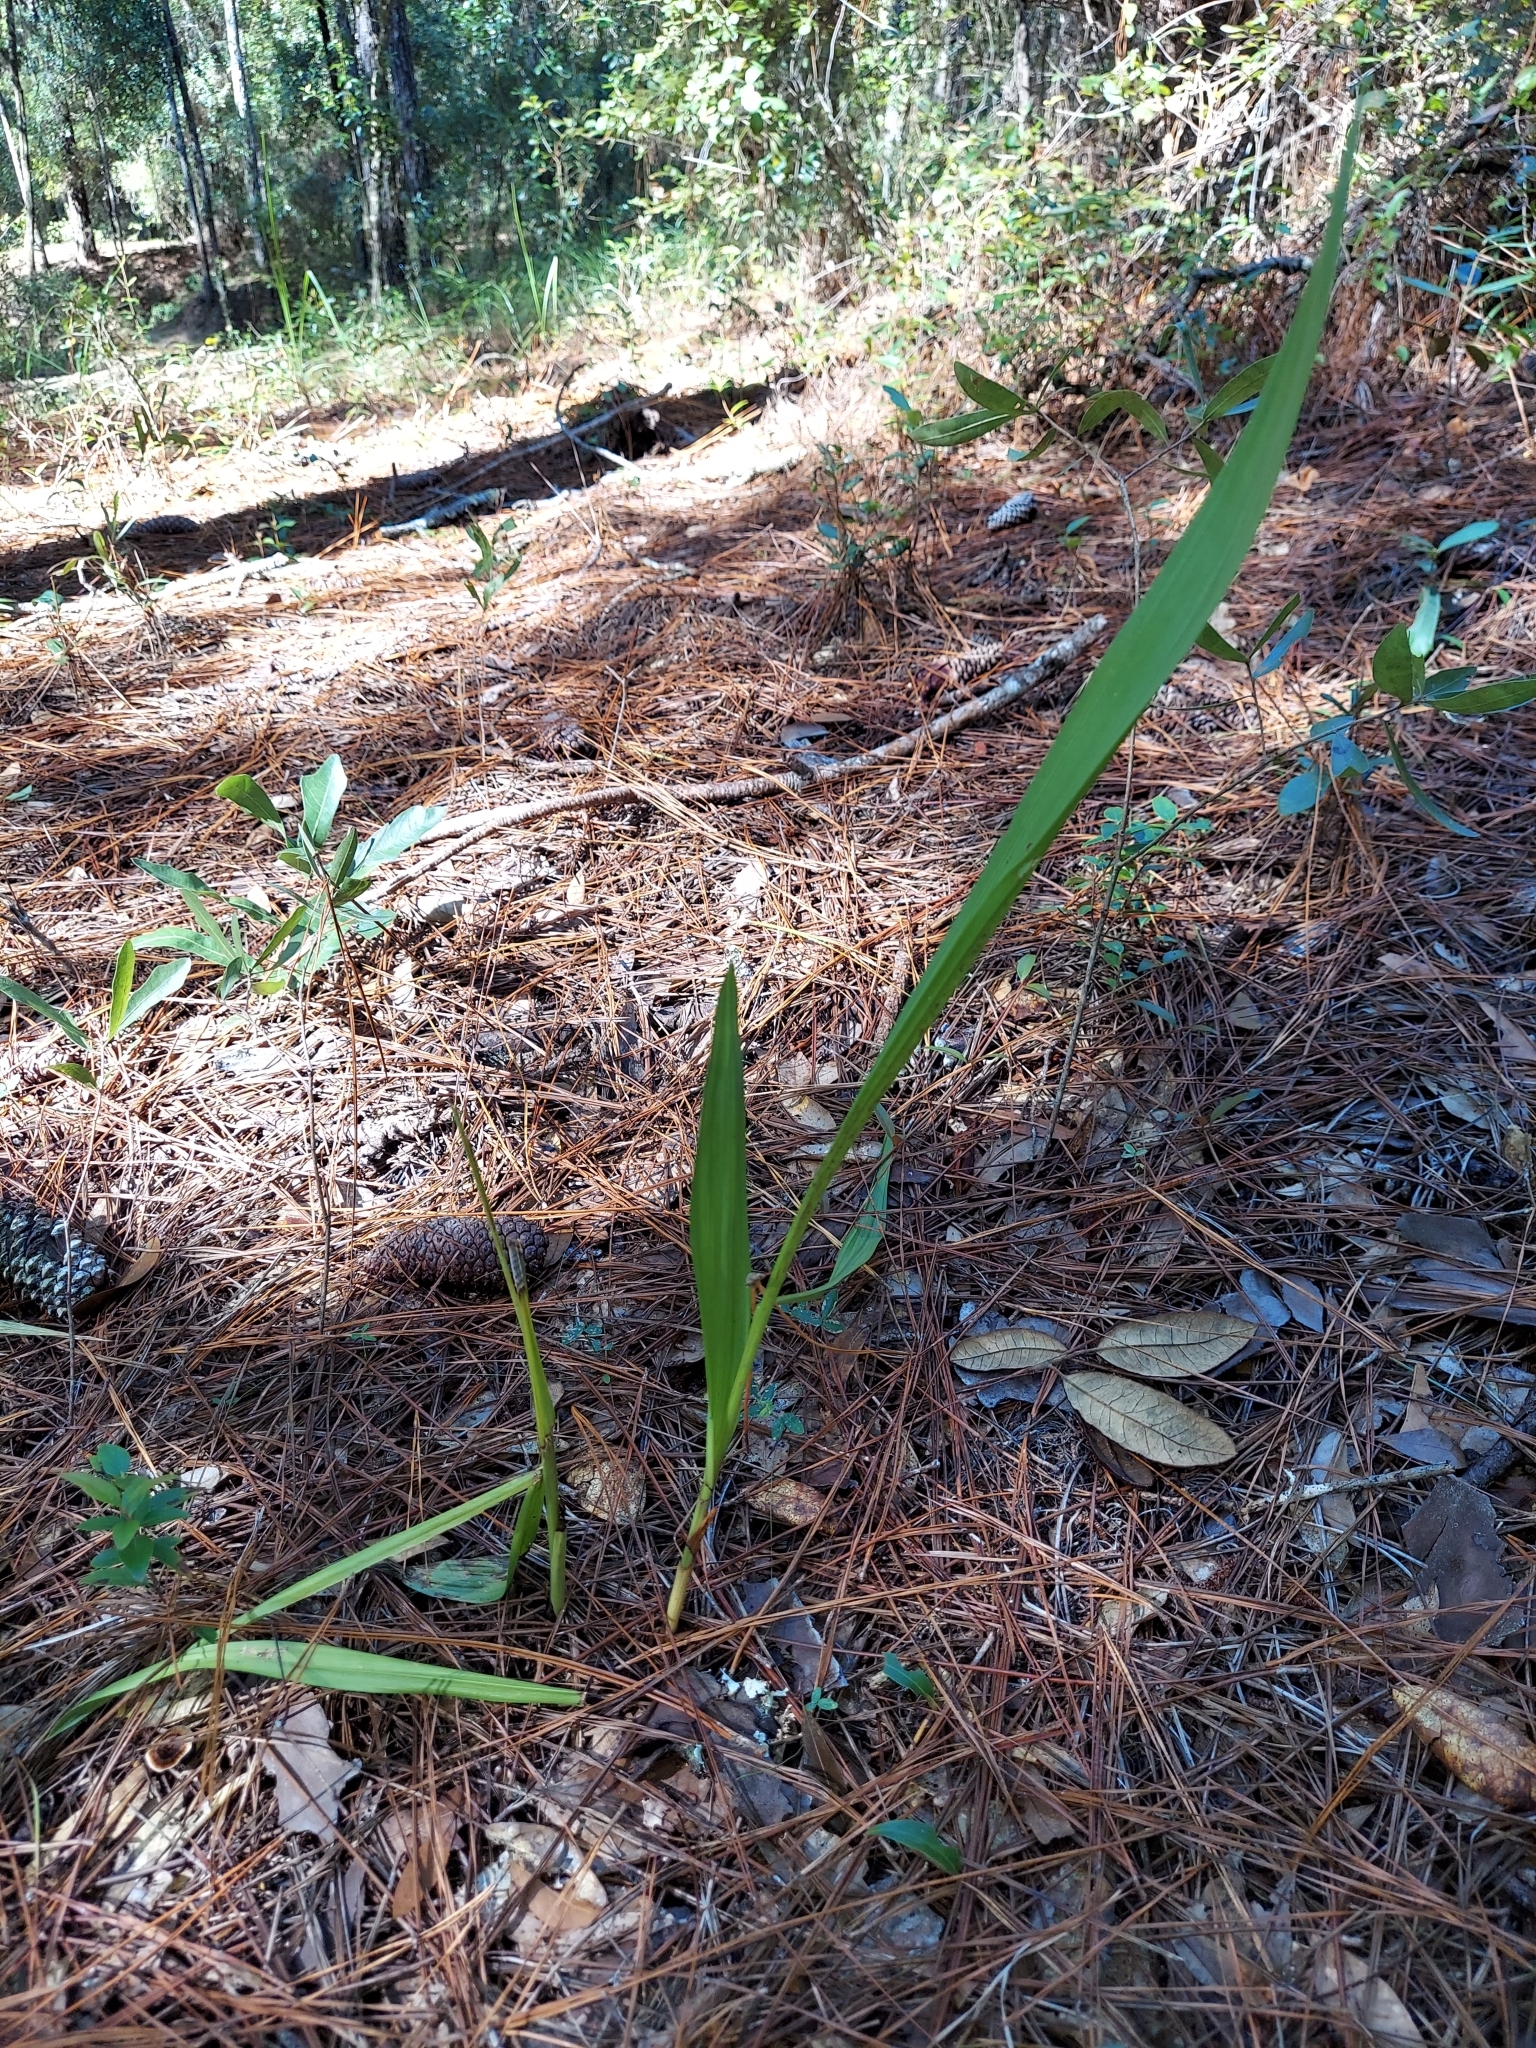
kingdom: Plantae
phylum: Tracheophyta
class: Liliopsida
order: Asparagales
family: Orchidaceae
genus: Eulophia
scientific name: Eulophia ecristata
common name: Giant orchid
